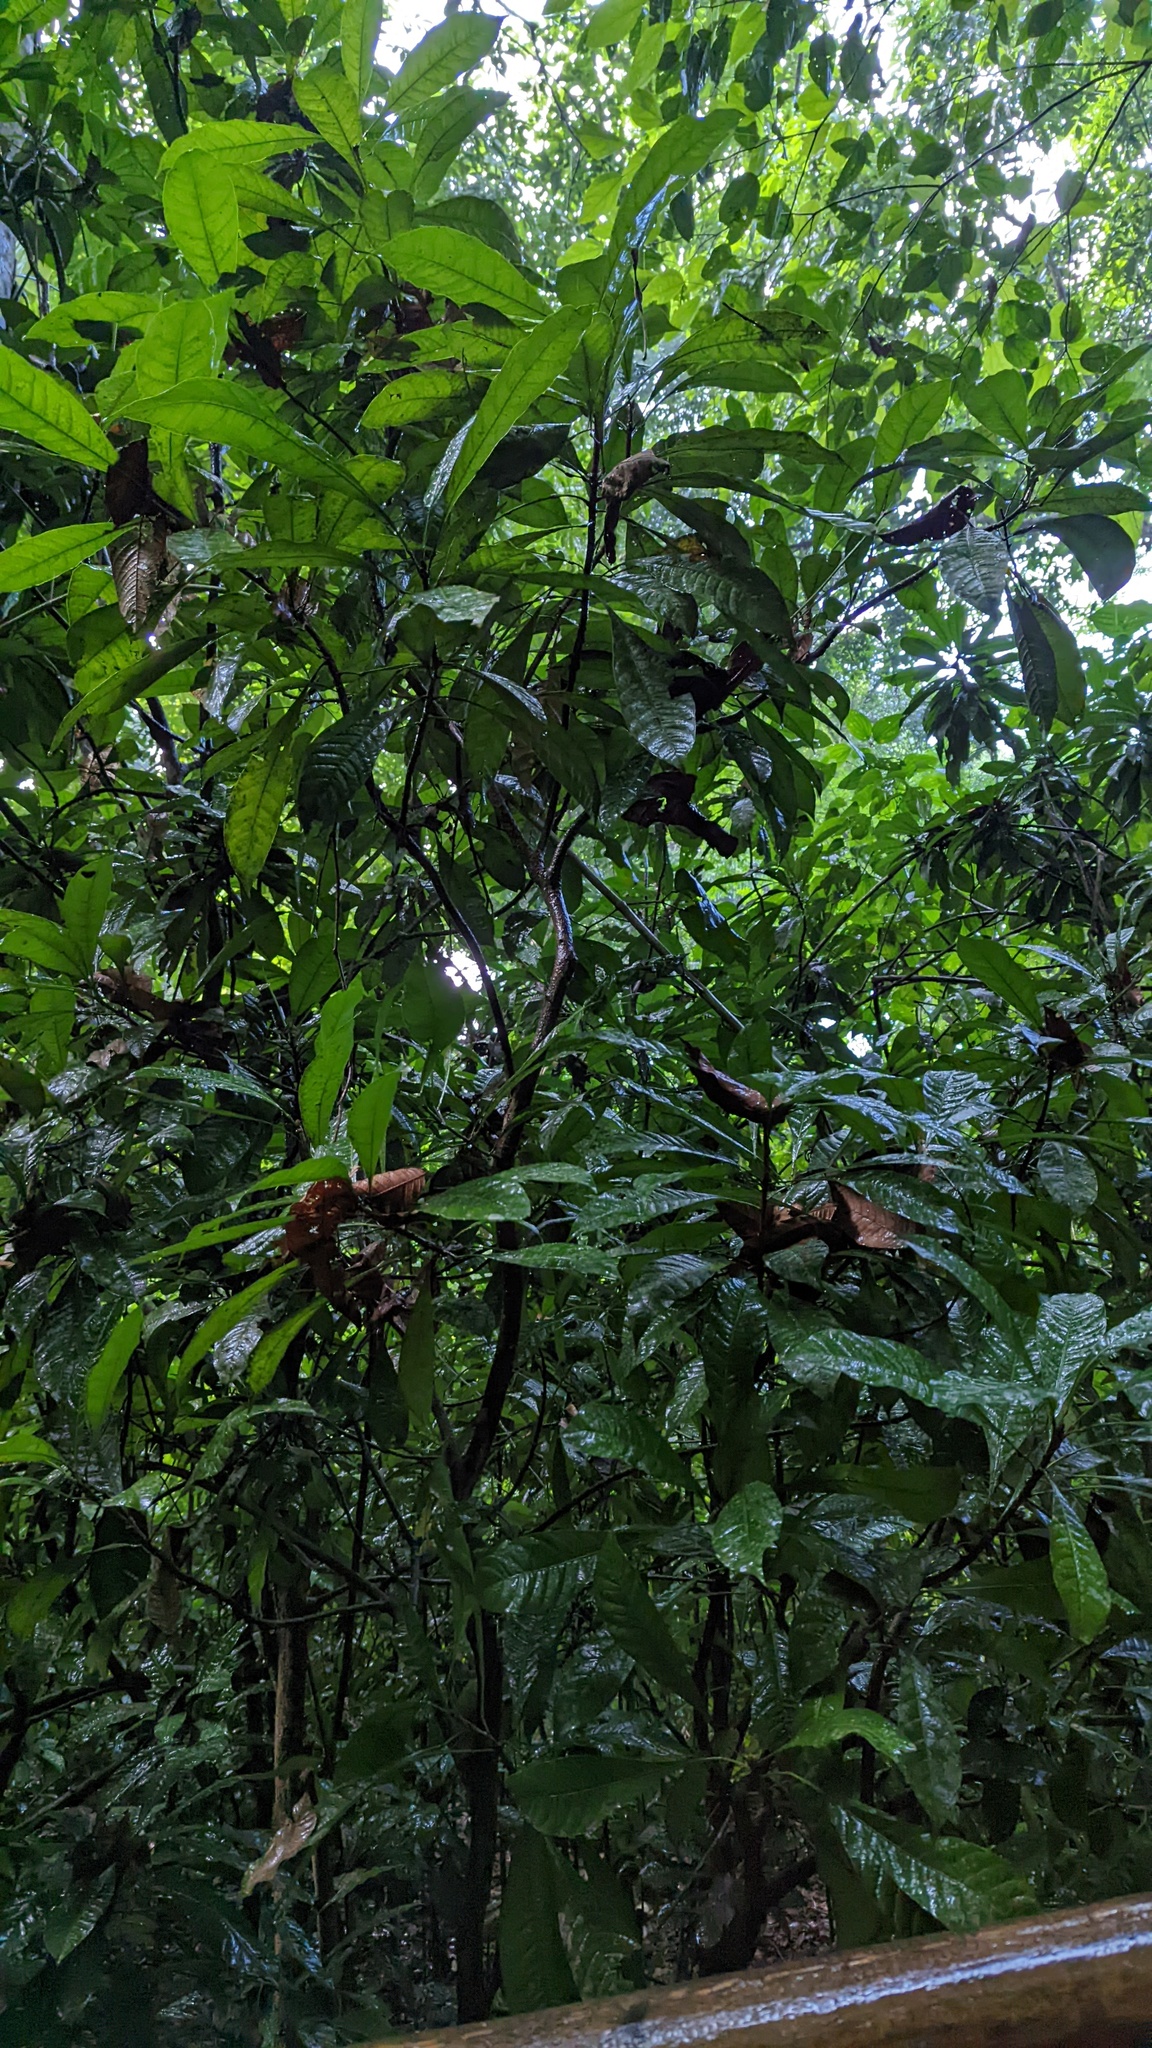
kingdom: Plantae
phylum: Tracheophyta
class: Magnoliopsida
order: Sapindales
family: Rutaceae
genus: Erythrochiton
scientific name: Erythrochiton gymnanthus
